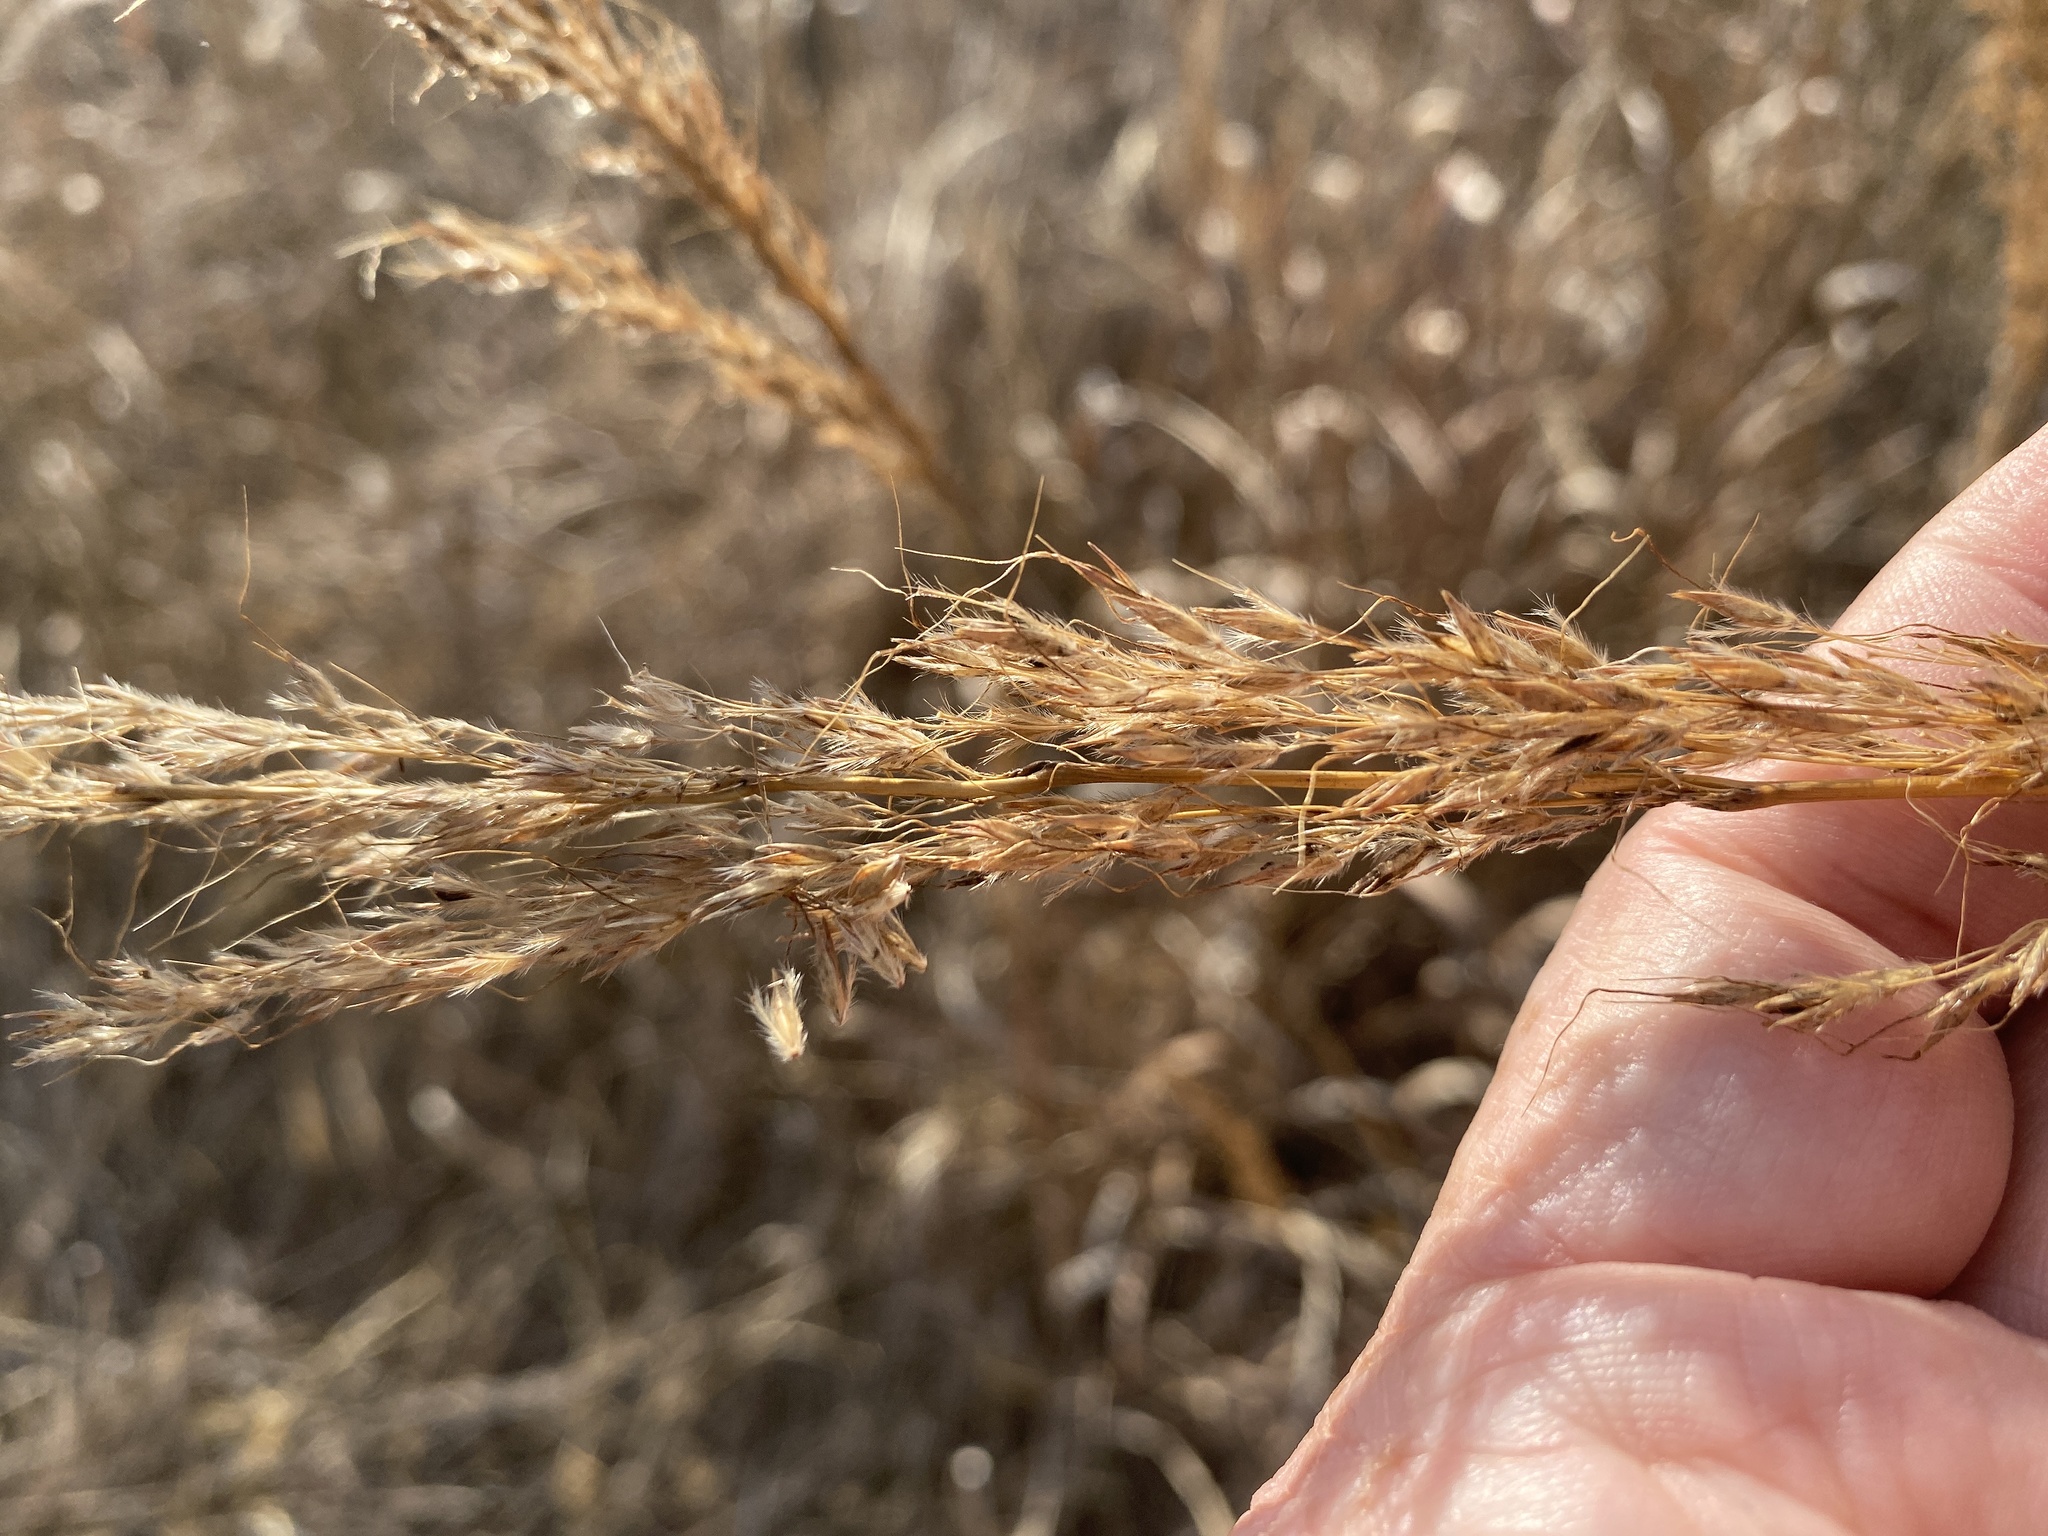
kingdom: Plantae
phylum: Tracheophyta
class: Liliopsida
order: Poales
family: Poaceae
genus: Sorghastrum
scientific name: Sorghastrum nutans
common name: Indian grass
